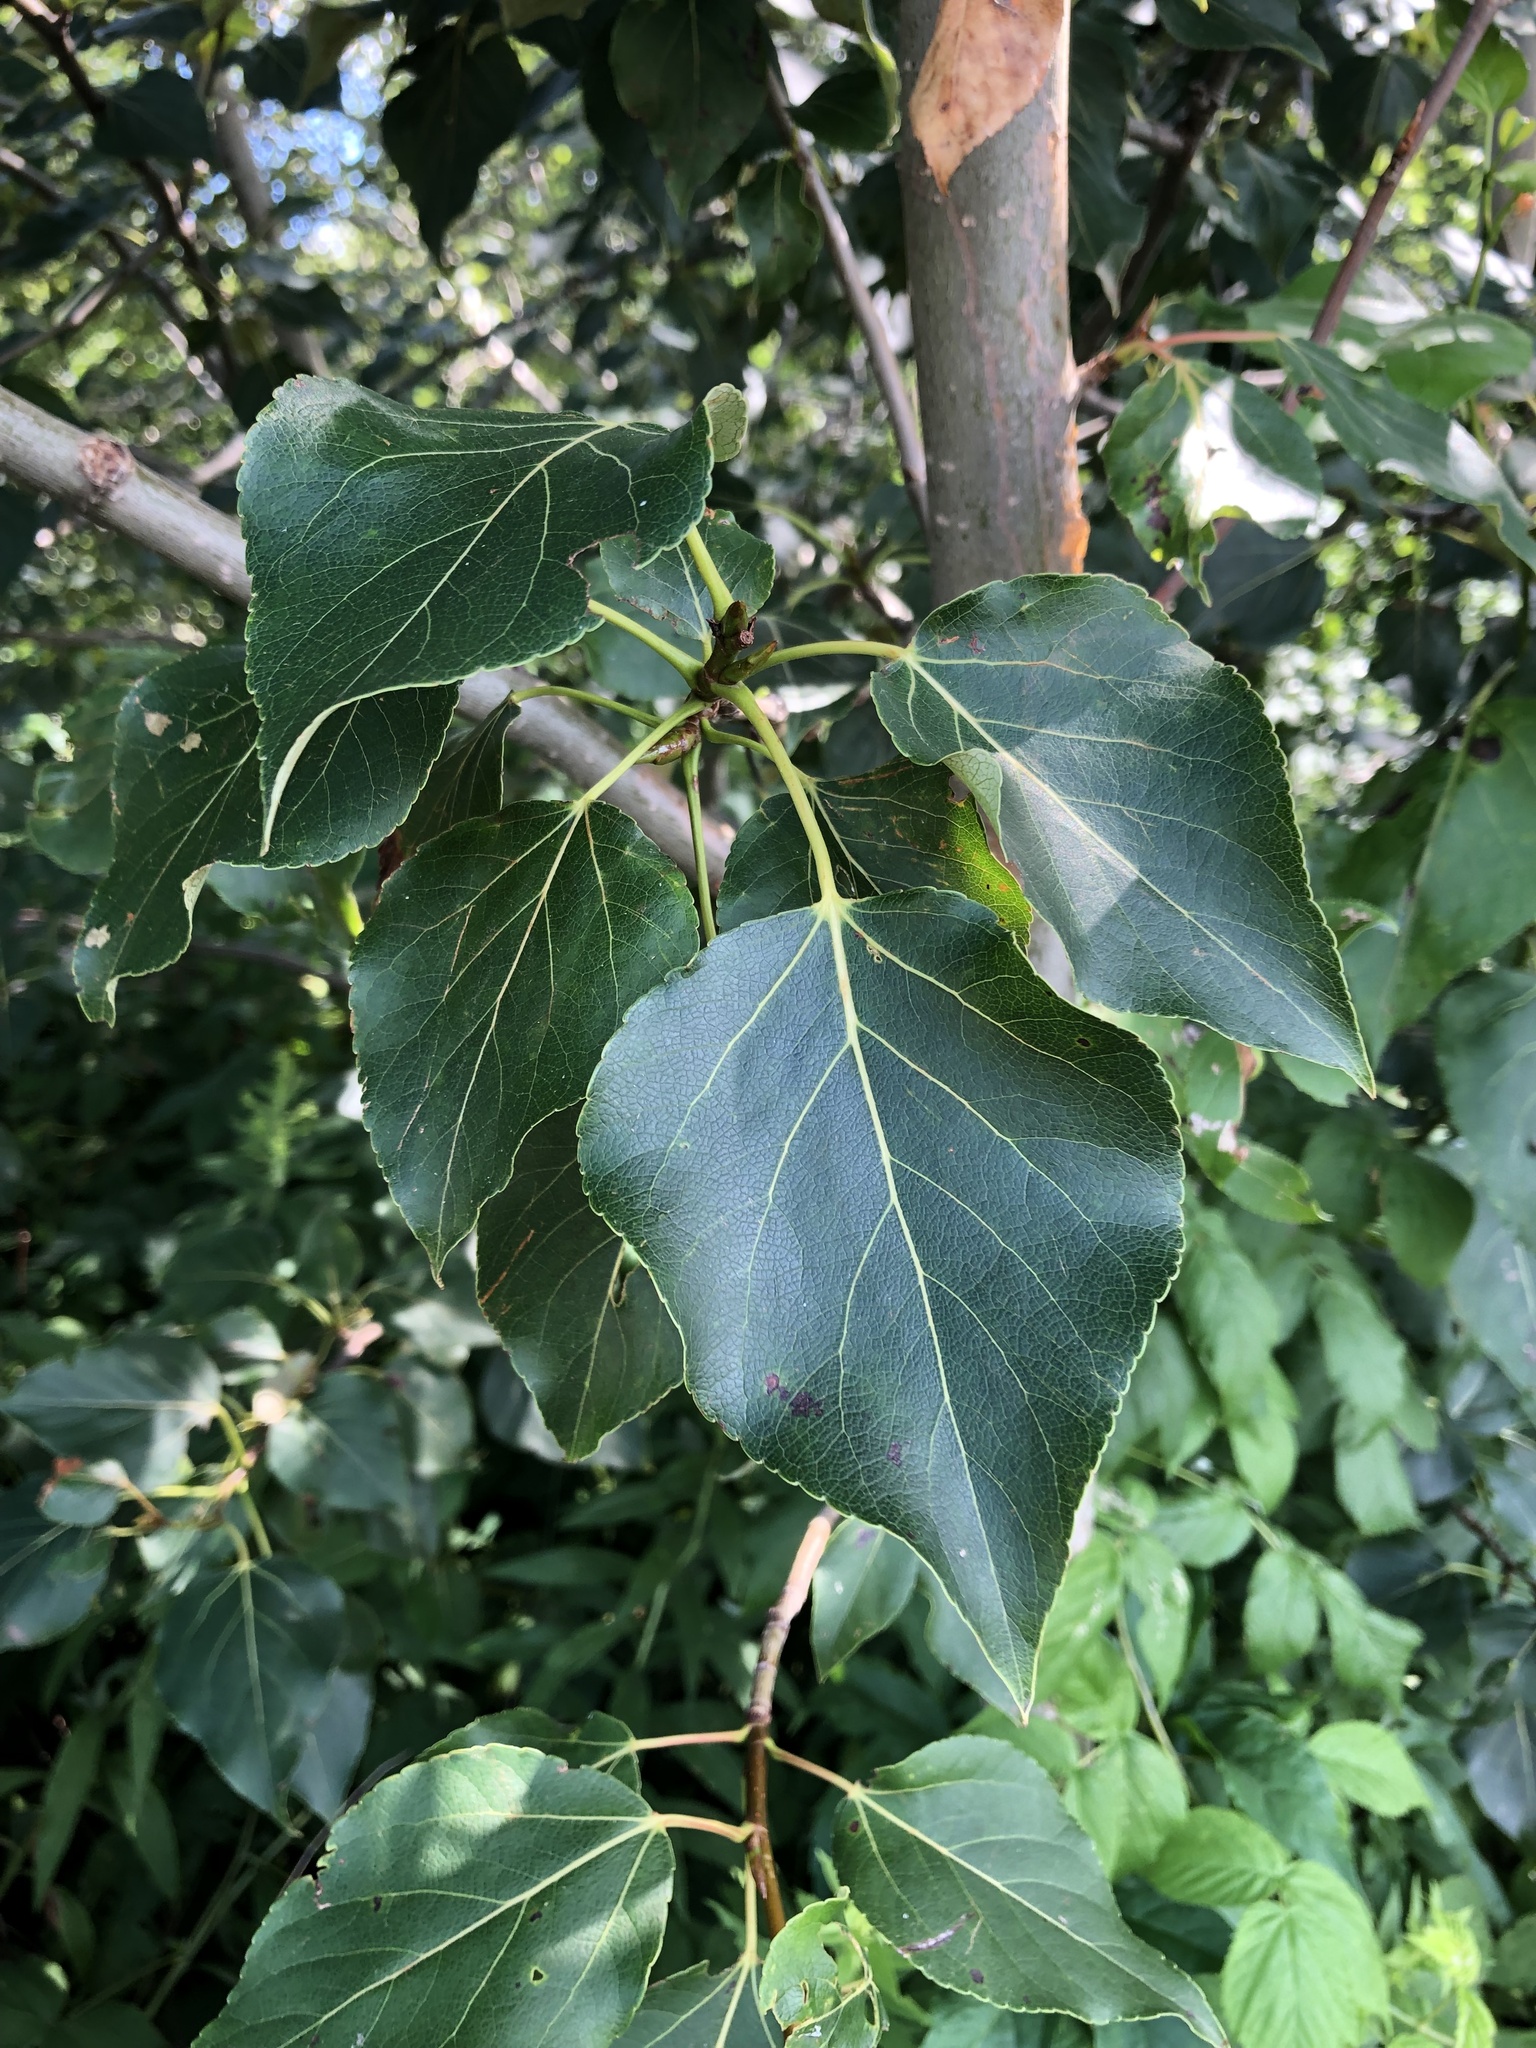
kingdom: Plantae
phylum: Tracheophyta
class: Magnoliopsida
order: Malpighiales
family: Salicaceae
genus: Populus
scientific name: Populus balsamifera
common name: Balsam poplar
